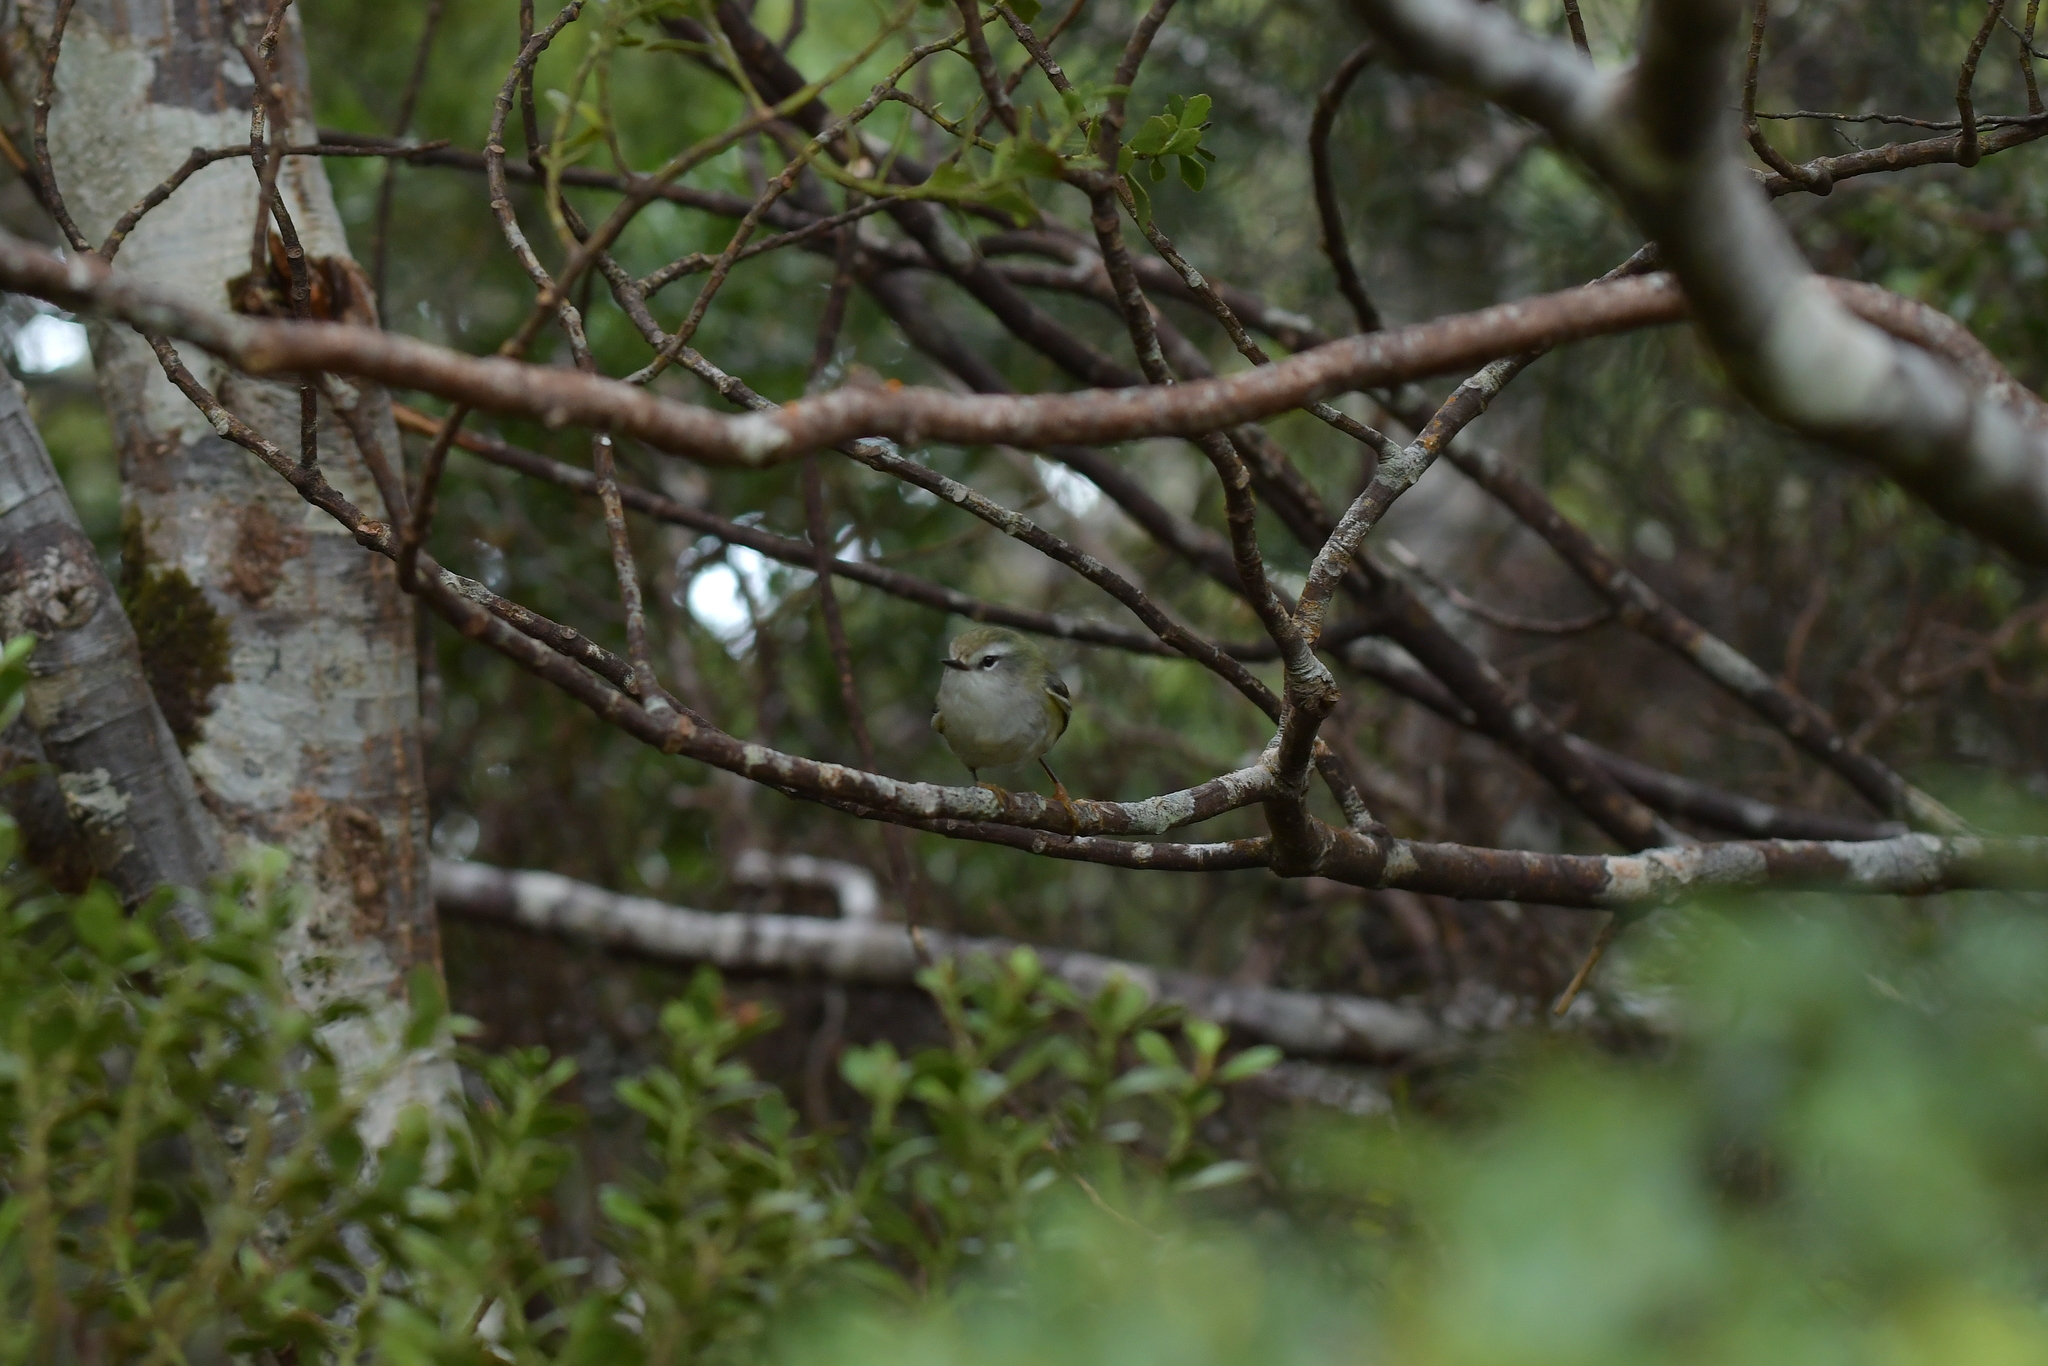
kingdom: Animalia
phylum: Chordata
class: Aves
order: Passeriformes
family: Acanthisittidae
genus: Acanthisitta
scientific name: Acanthisitta chloris
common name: Rifleman
